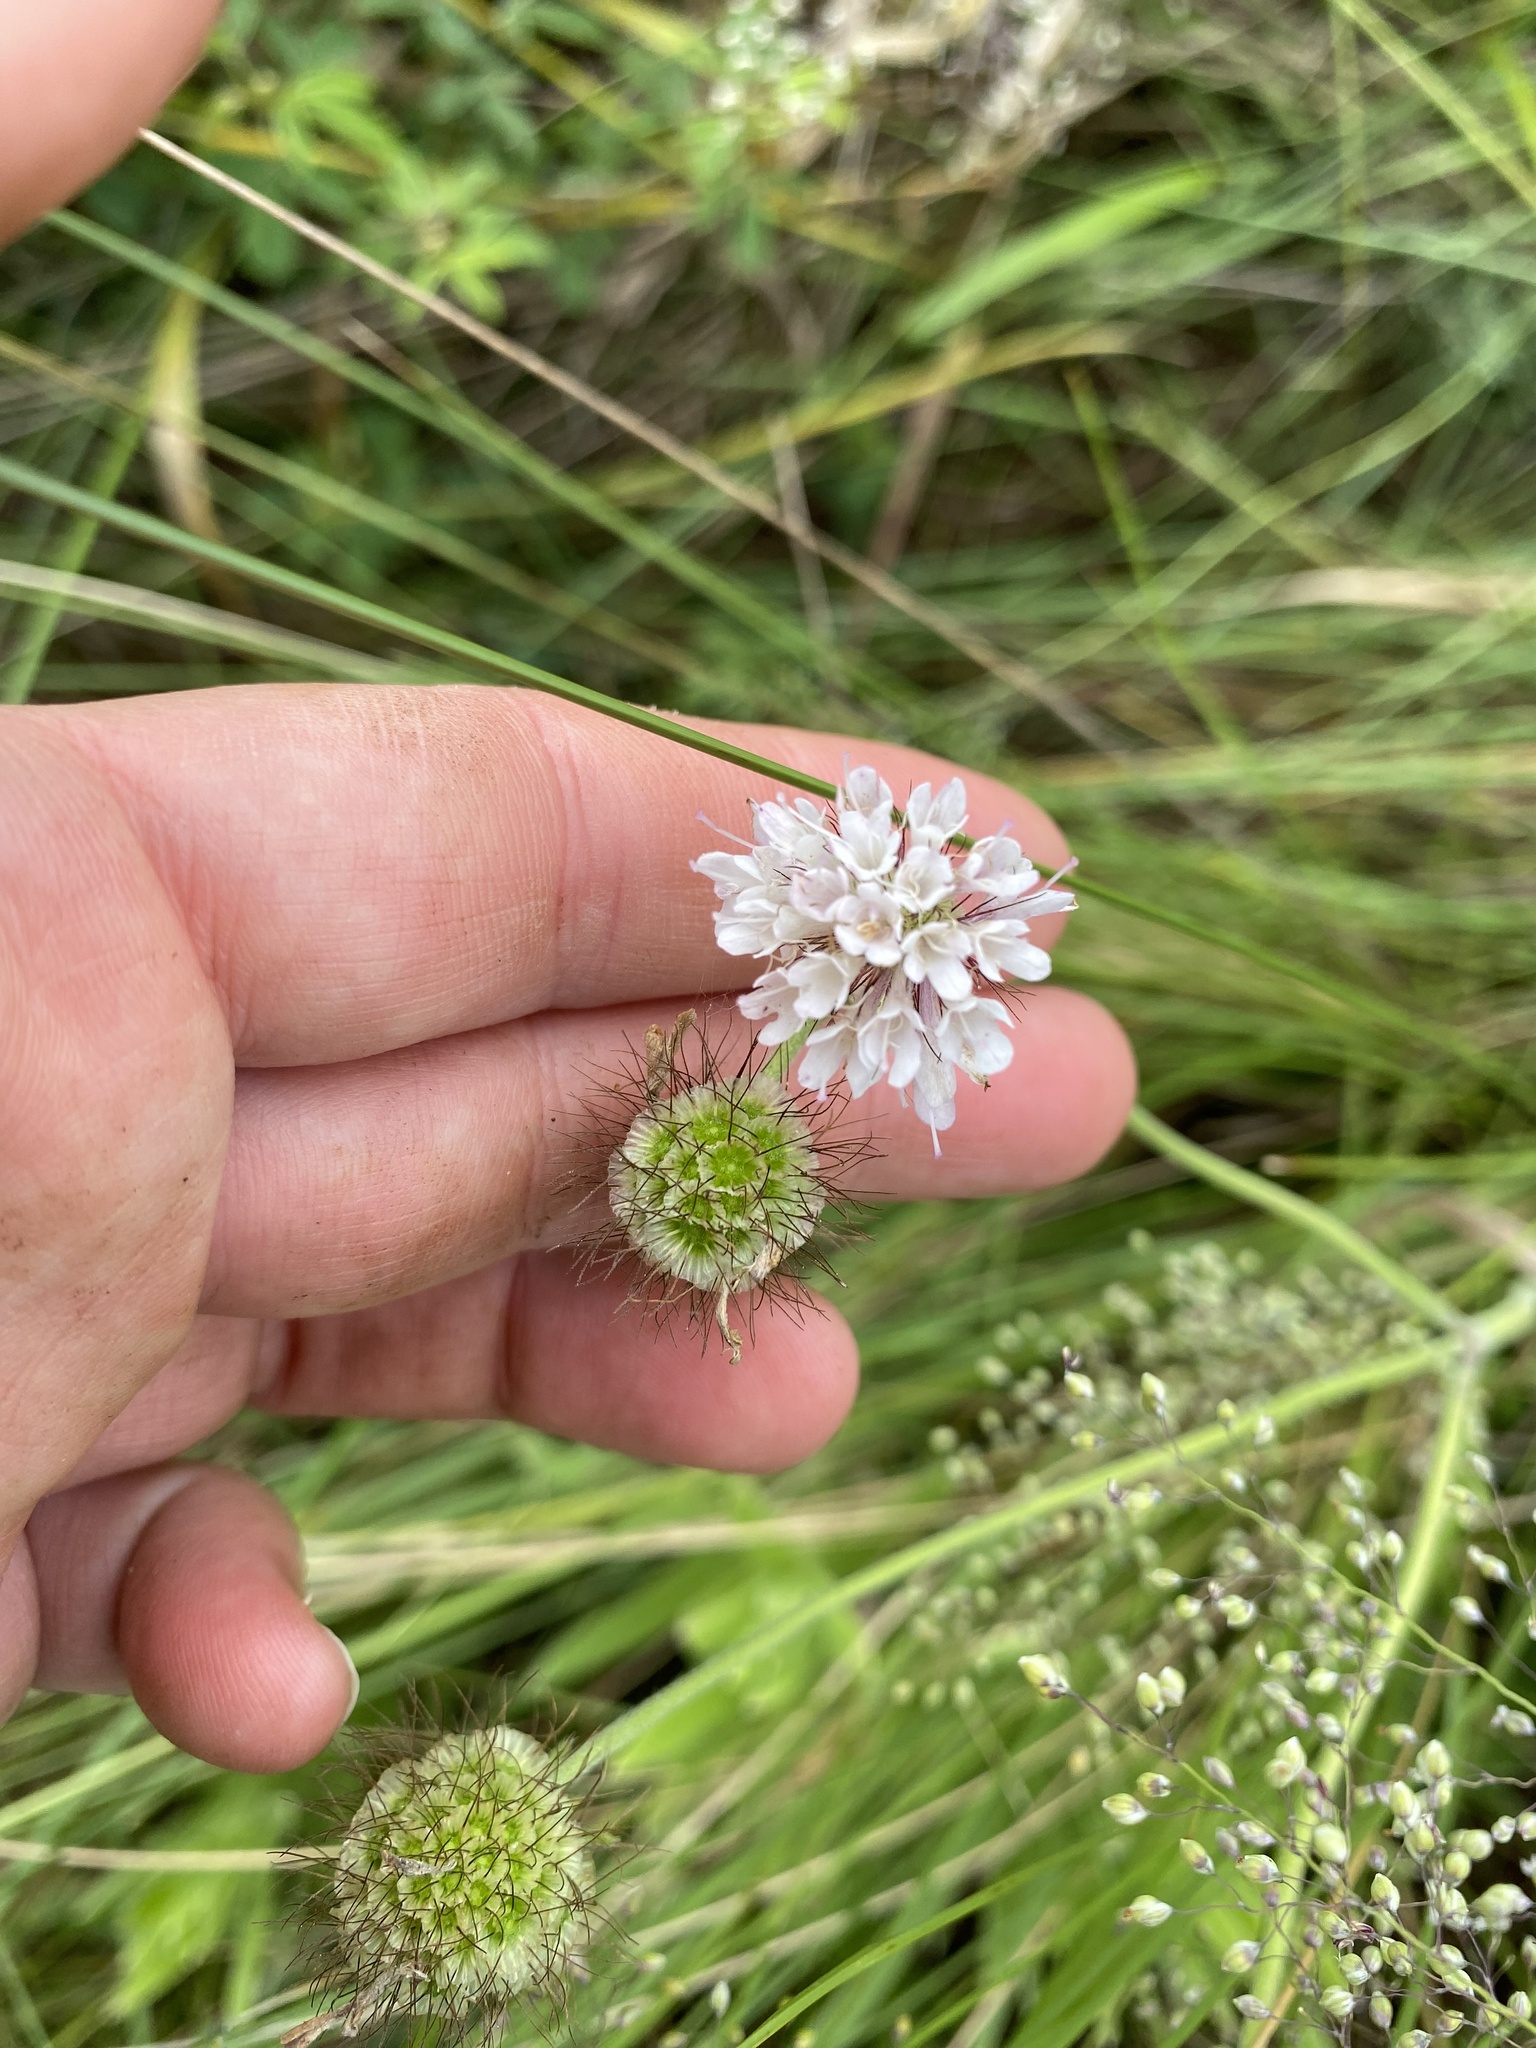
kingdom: Plantae
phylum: Tracheophyta
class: Magnoliopsida
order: Dipsacales
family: Caprifoliaceae
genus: Scabiosa
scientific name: Scabiosa columbaria
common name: Small scabious
